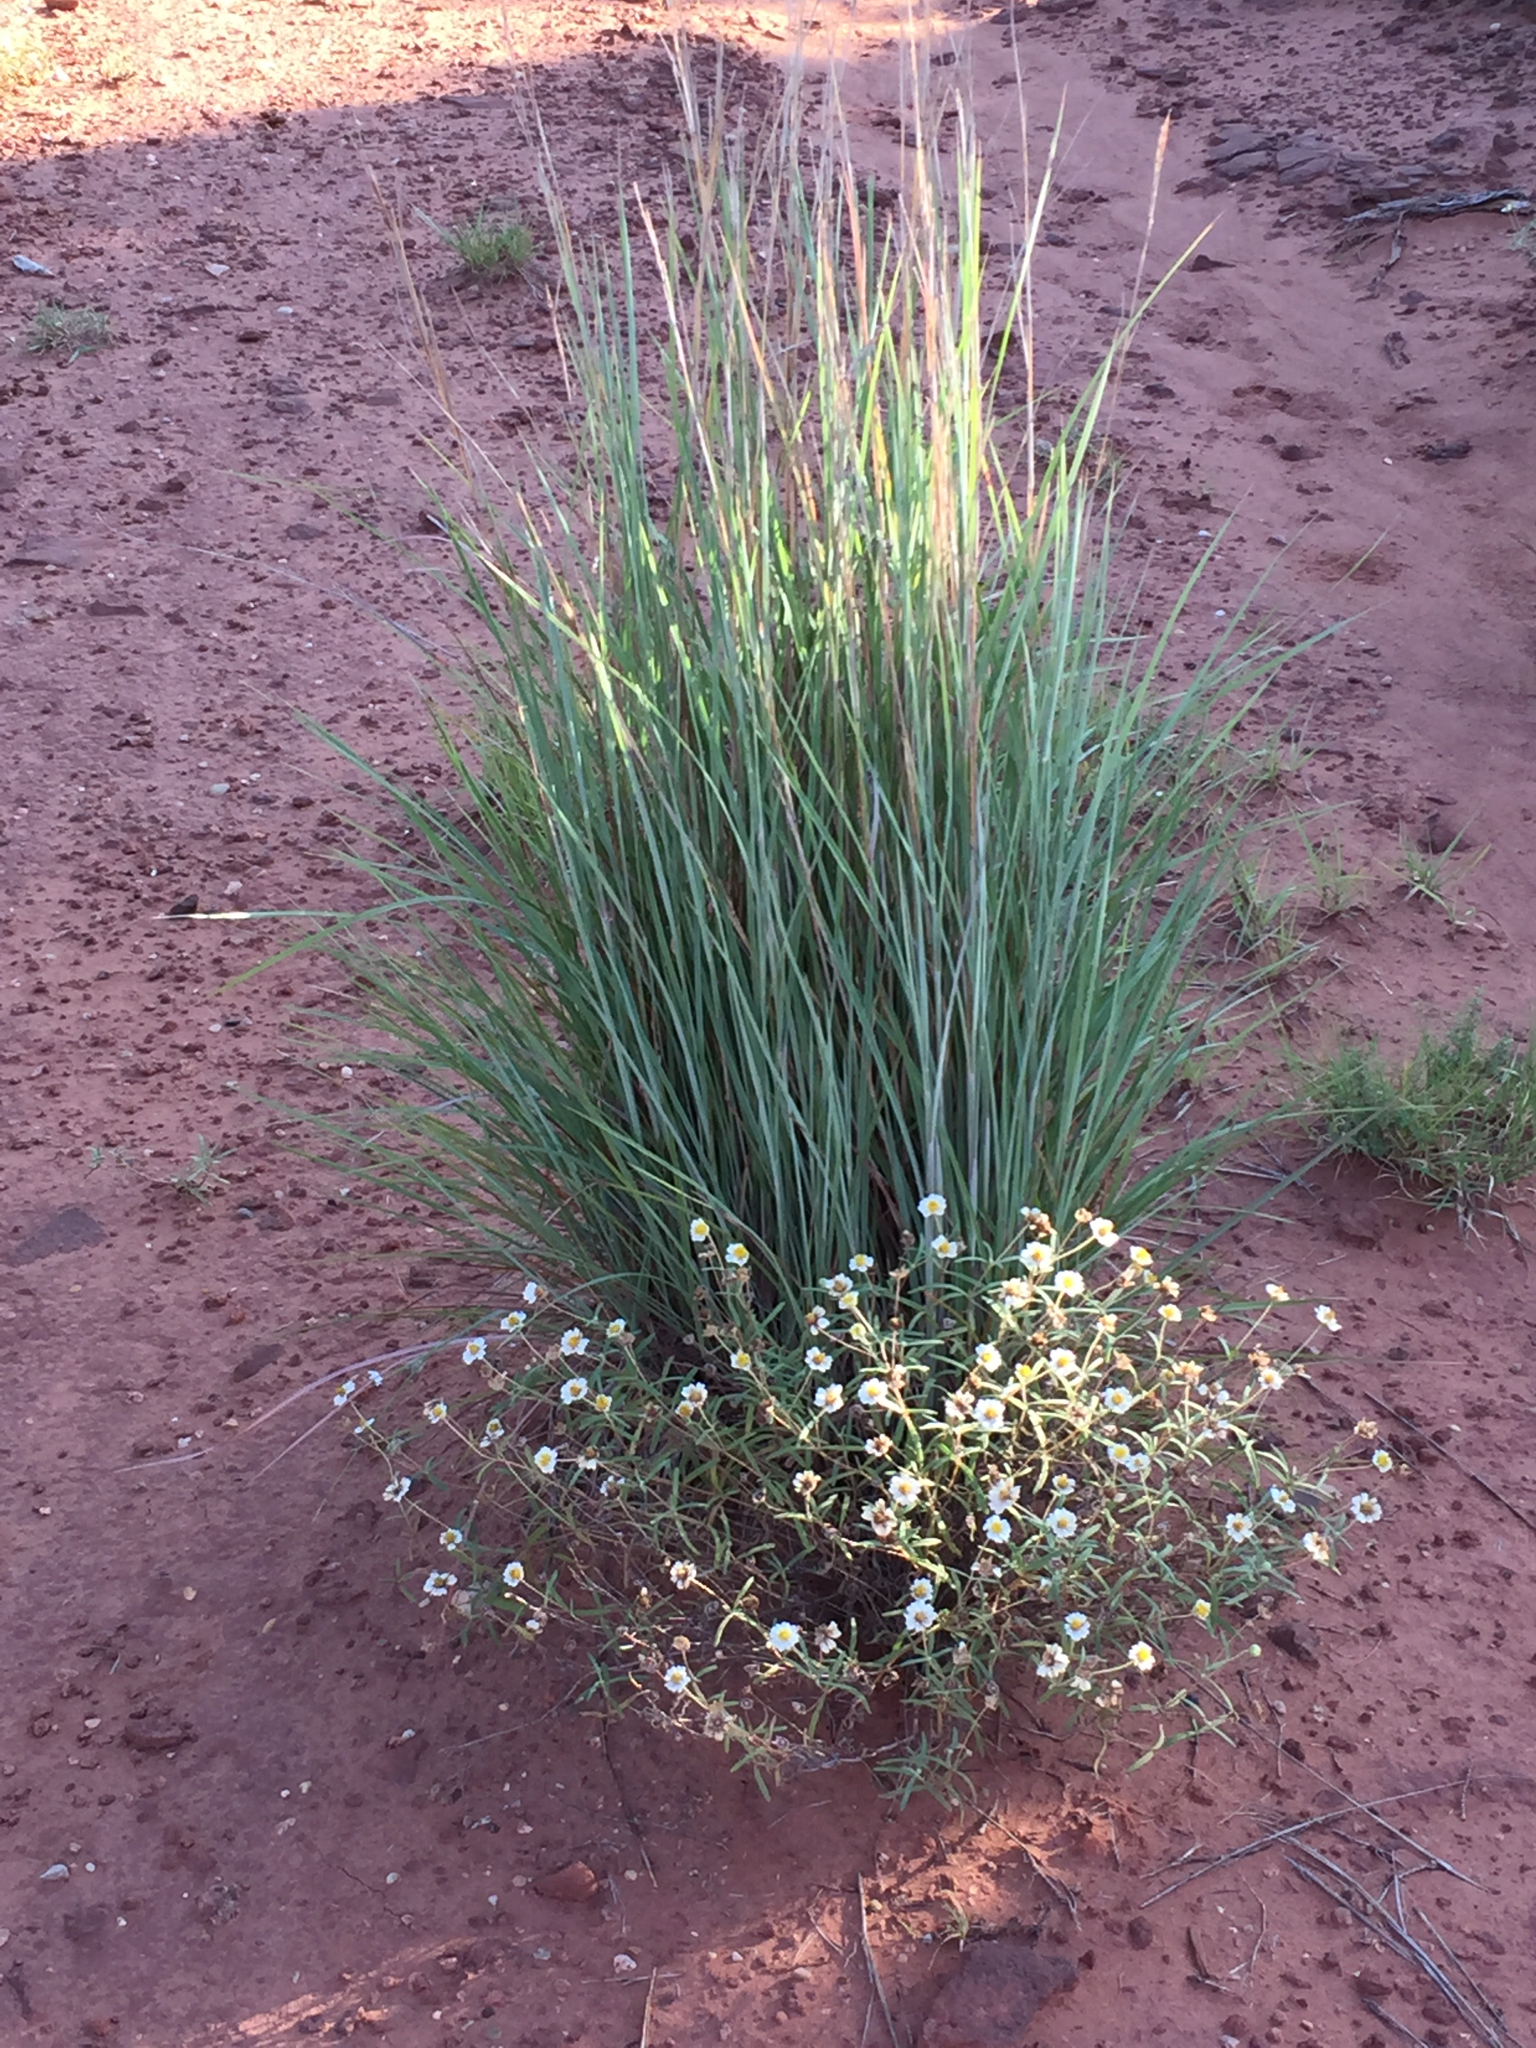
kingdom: Plantae
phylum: Tracheophyta
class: Magnoliopsida
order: Asterales
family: Asteraceae
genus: Melampodium
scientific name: Melampodium leucanthum
